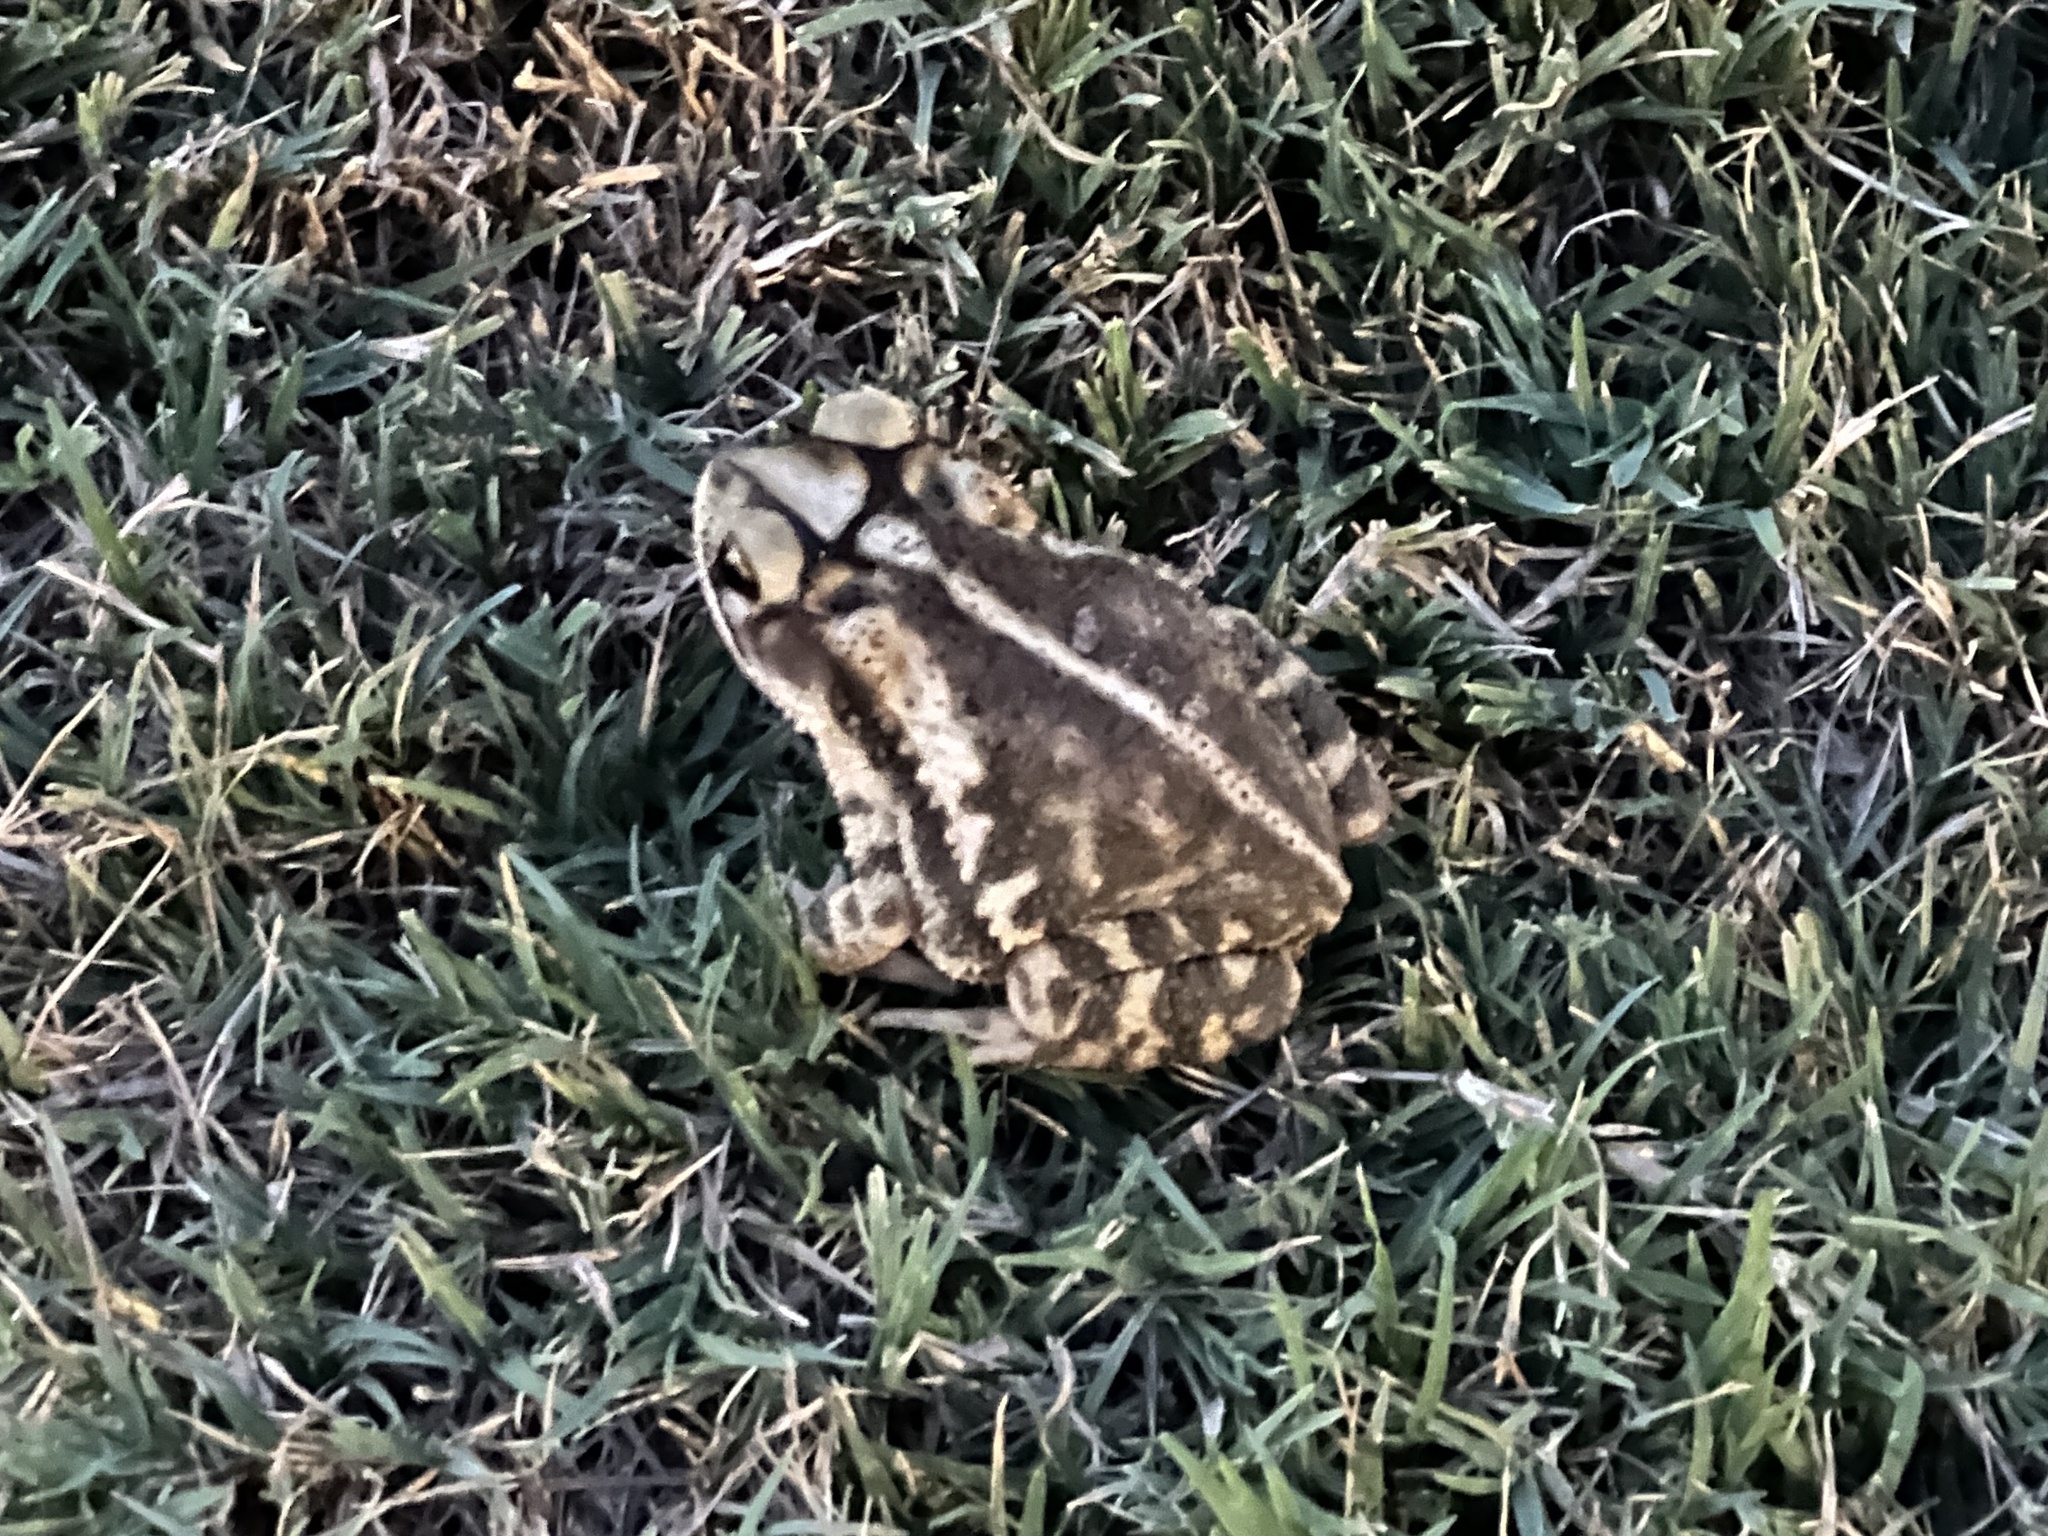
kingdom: Animalia
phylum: Chordata
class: Amphibia
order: Anura
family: Bufonidae
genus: Incilius
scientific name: Incilius nebulifer
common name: Gulf coast toad
